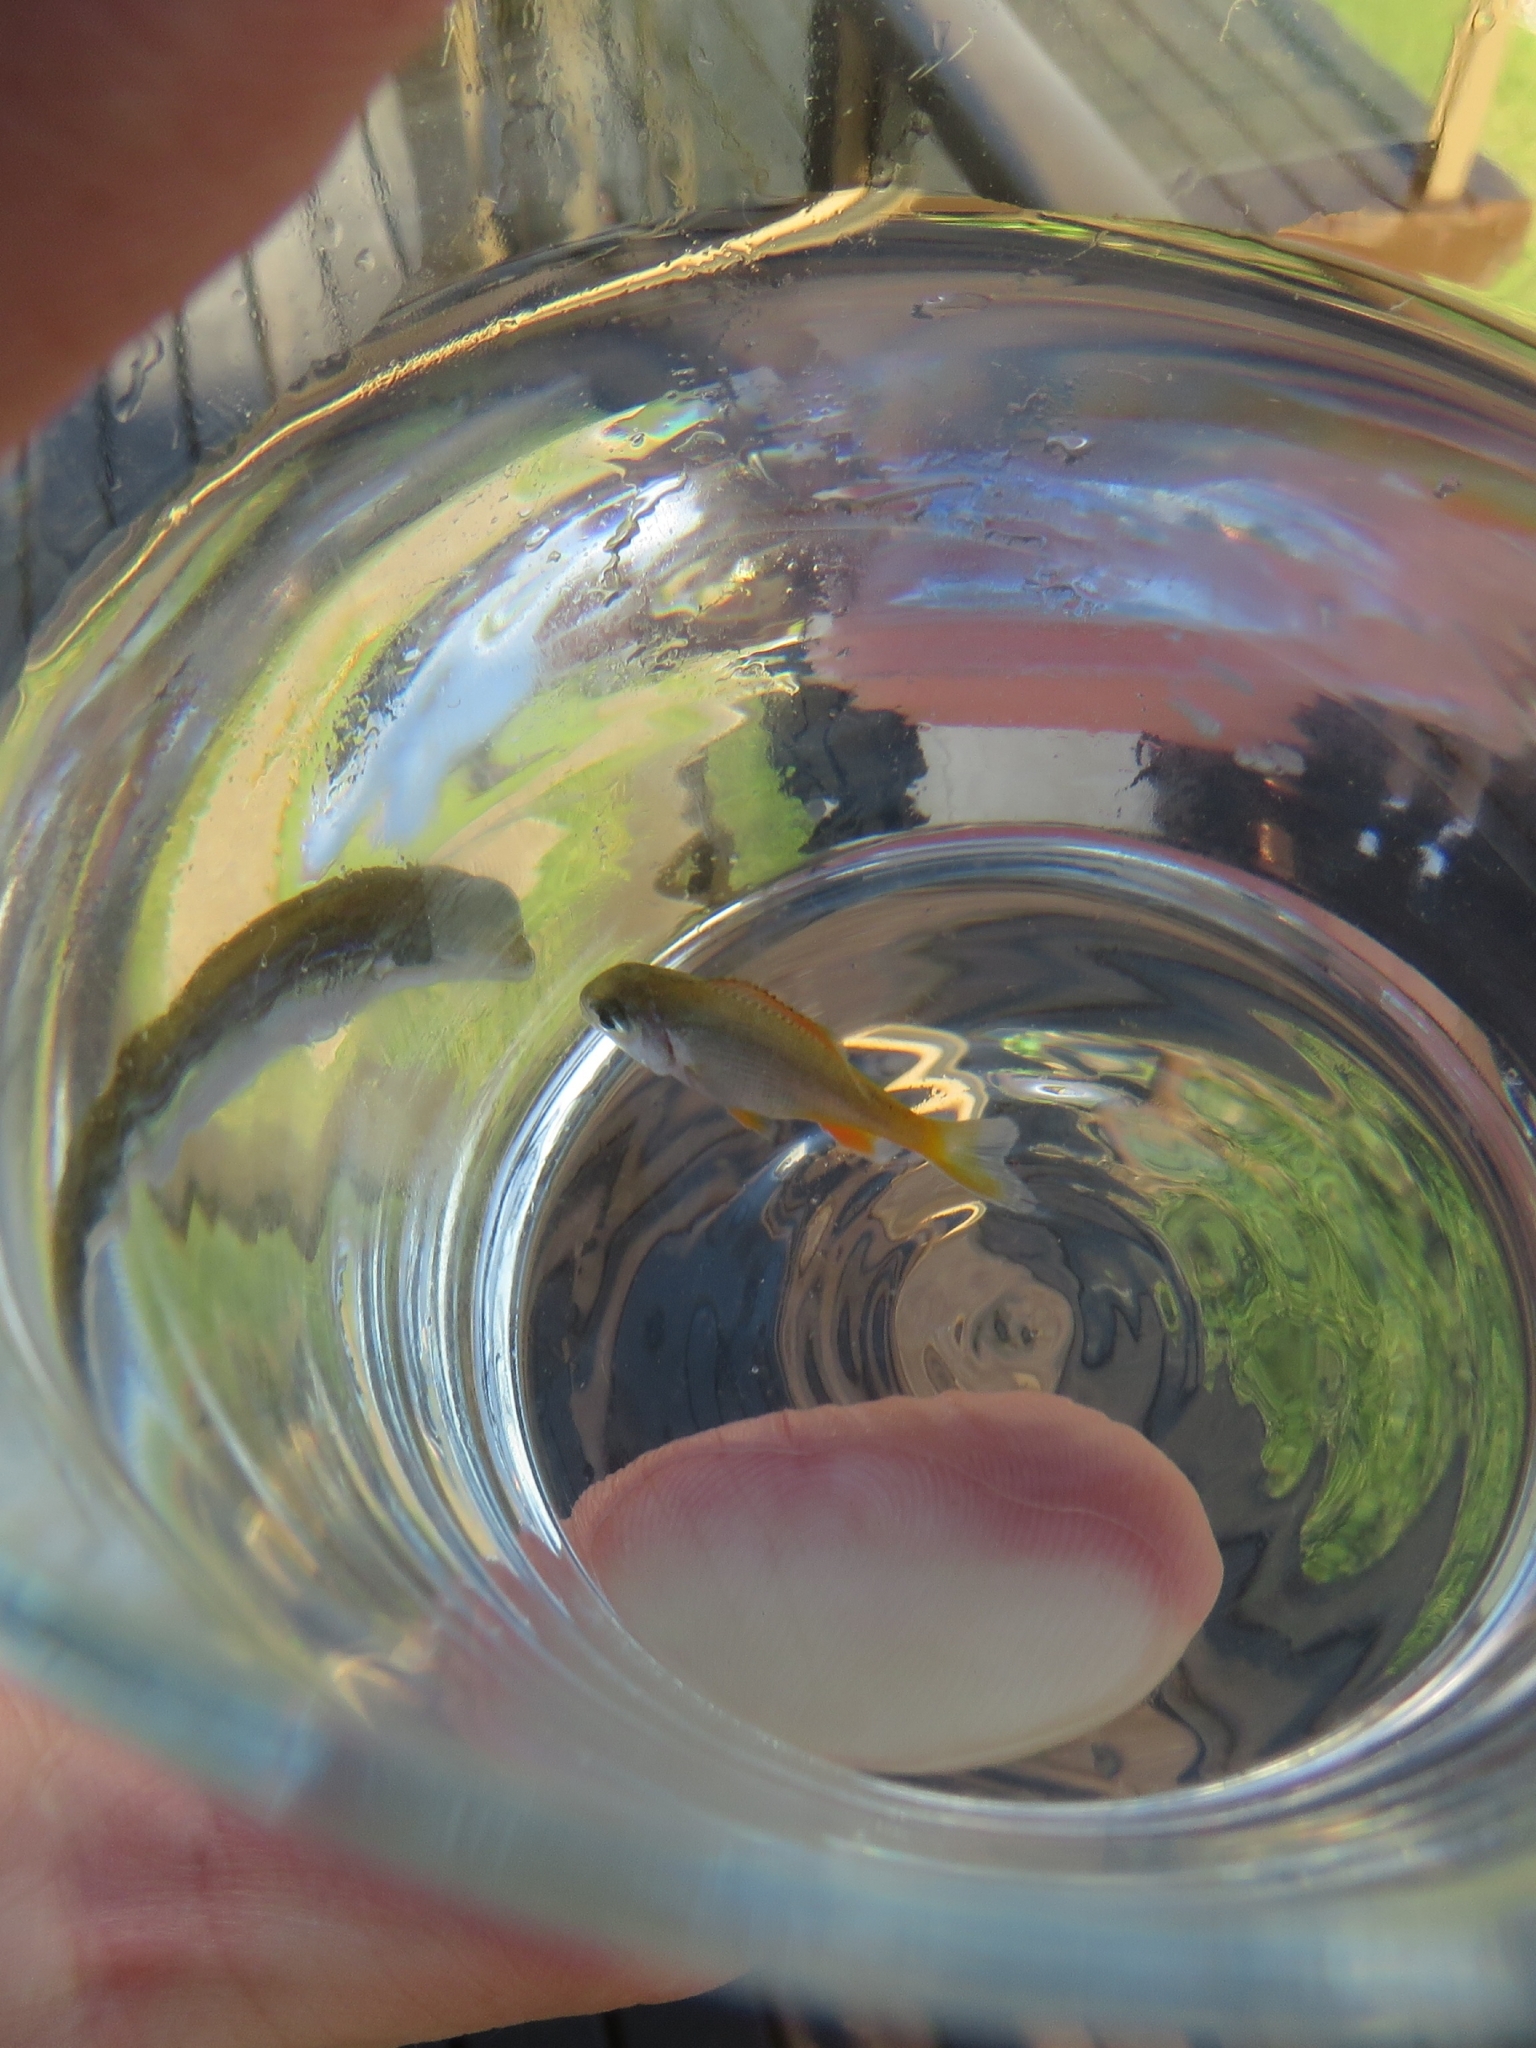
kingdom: Animalia
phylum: Chordata
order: Perciformes
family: Sparidae
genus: Sparodon
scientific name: Sparodon durbanensis
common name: White musselcracker
